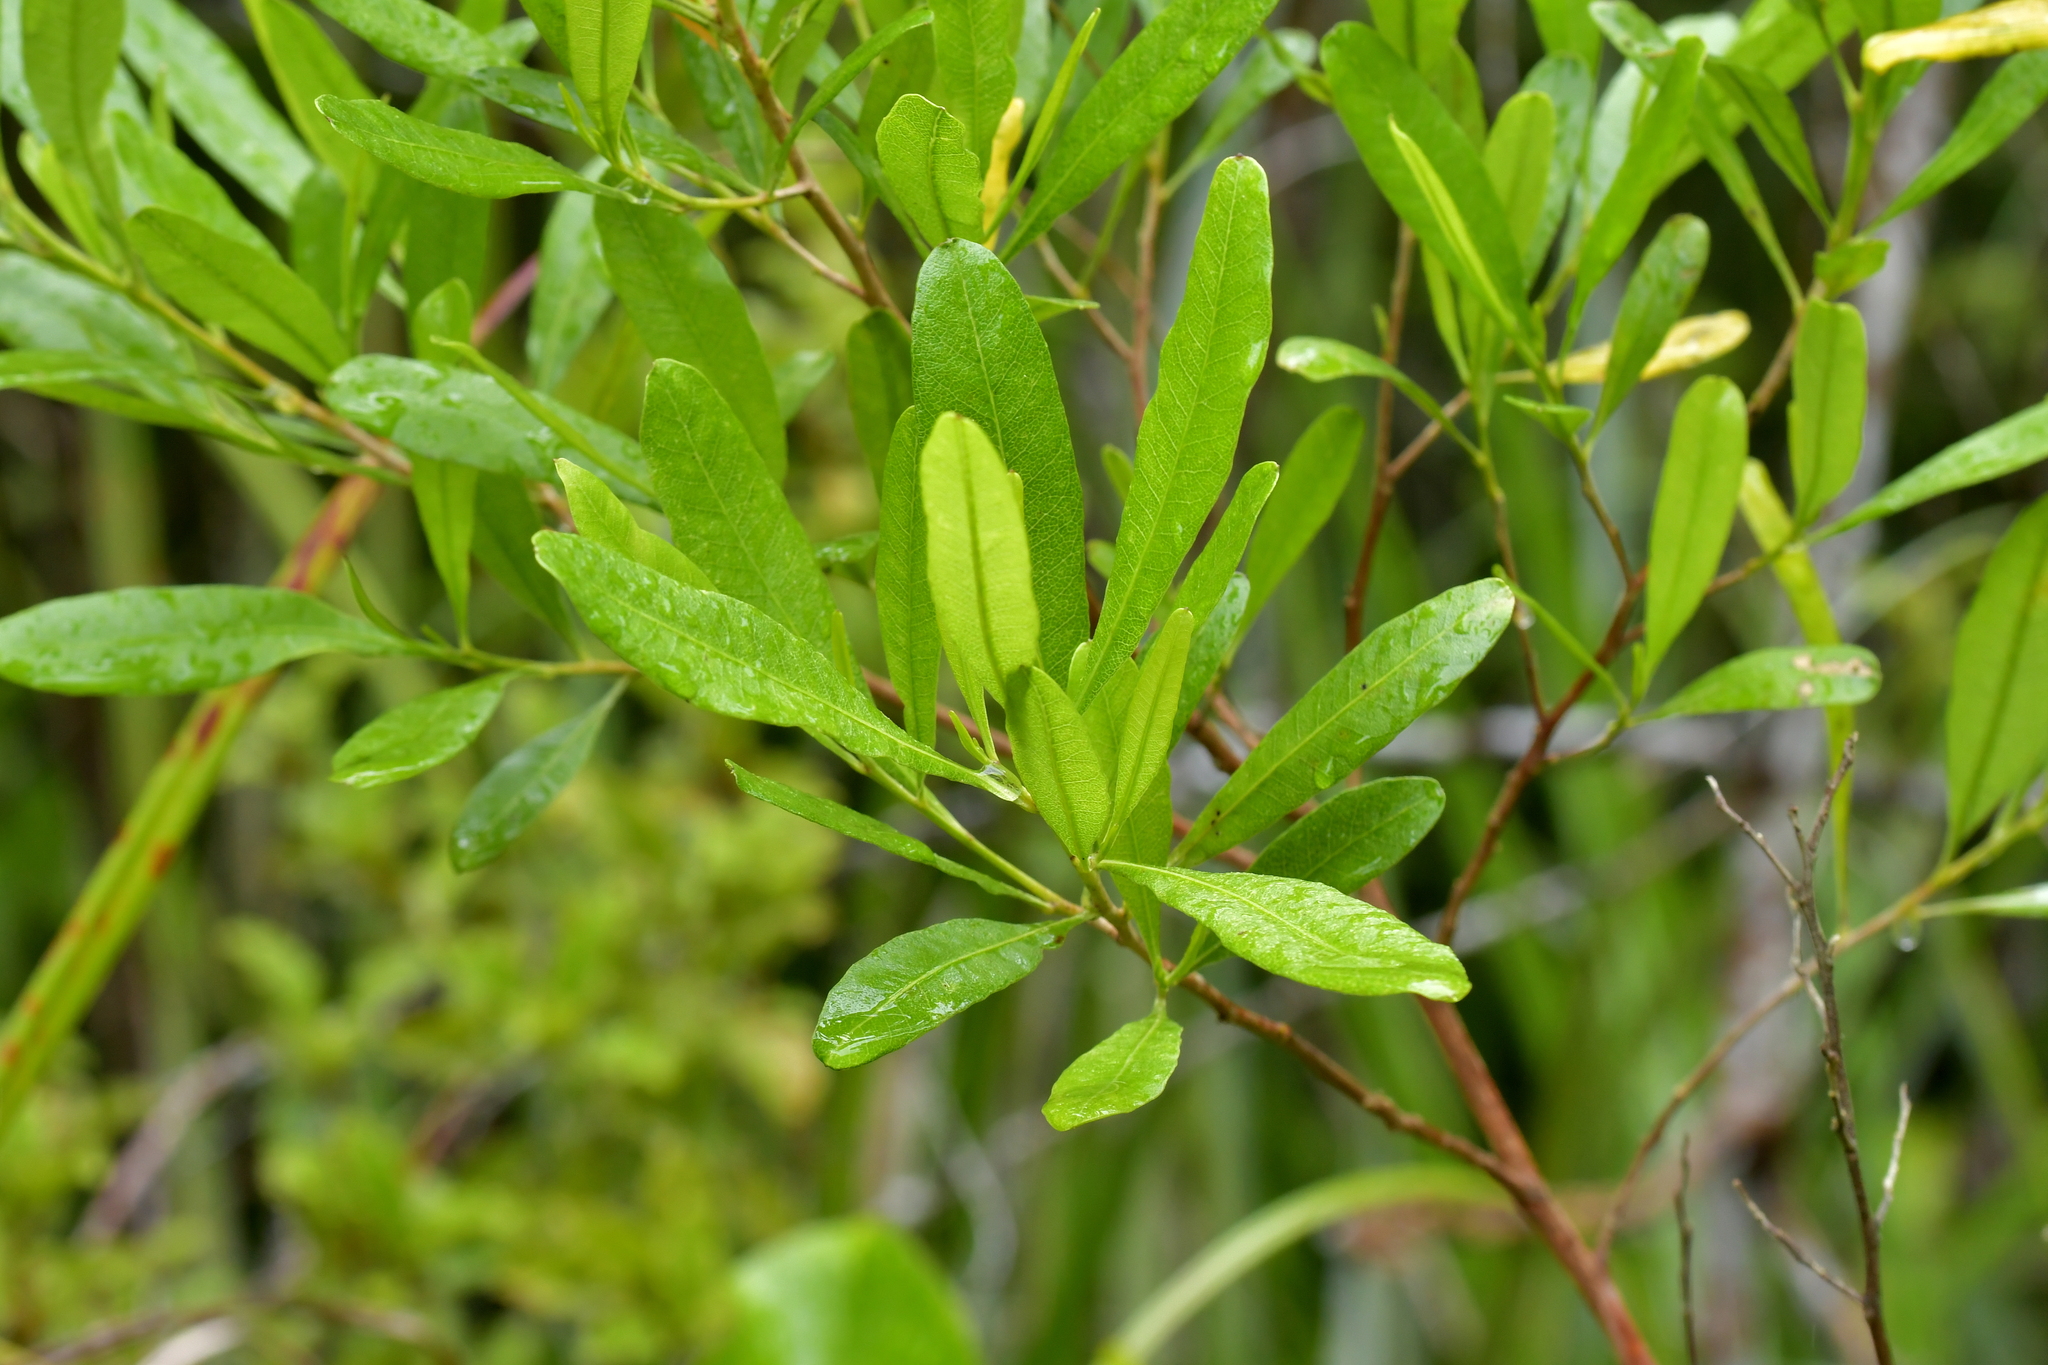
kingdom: Plantae
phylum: Tracheophyta
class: Magnoliopsida
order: Sapindales
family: Sapindaceae
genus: Dodonaea
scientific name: Dodonaea viscosa
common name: Hopbush
